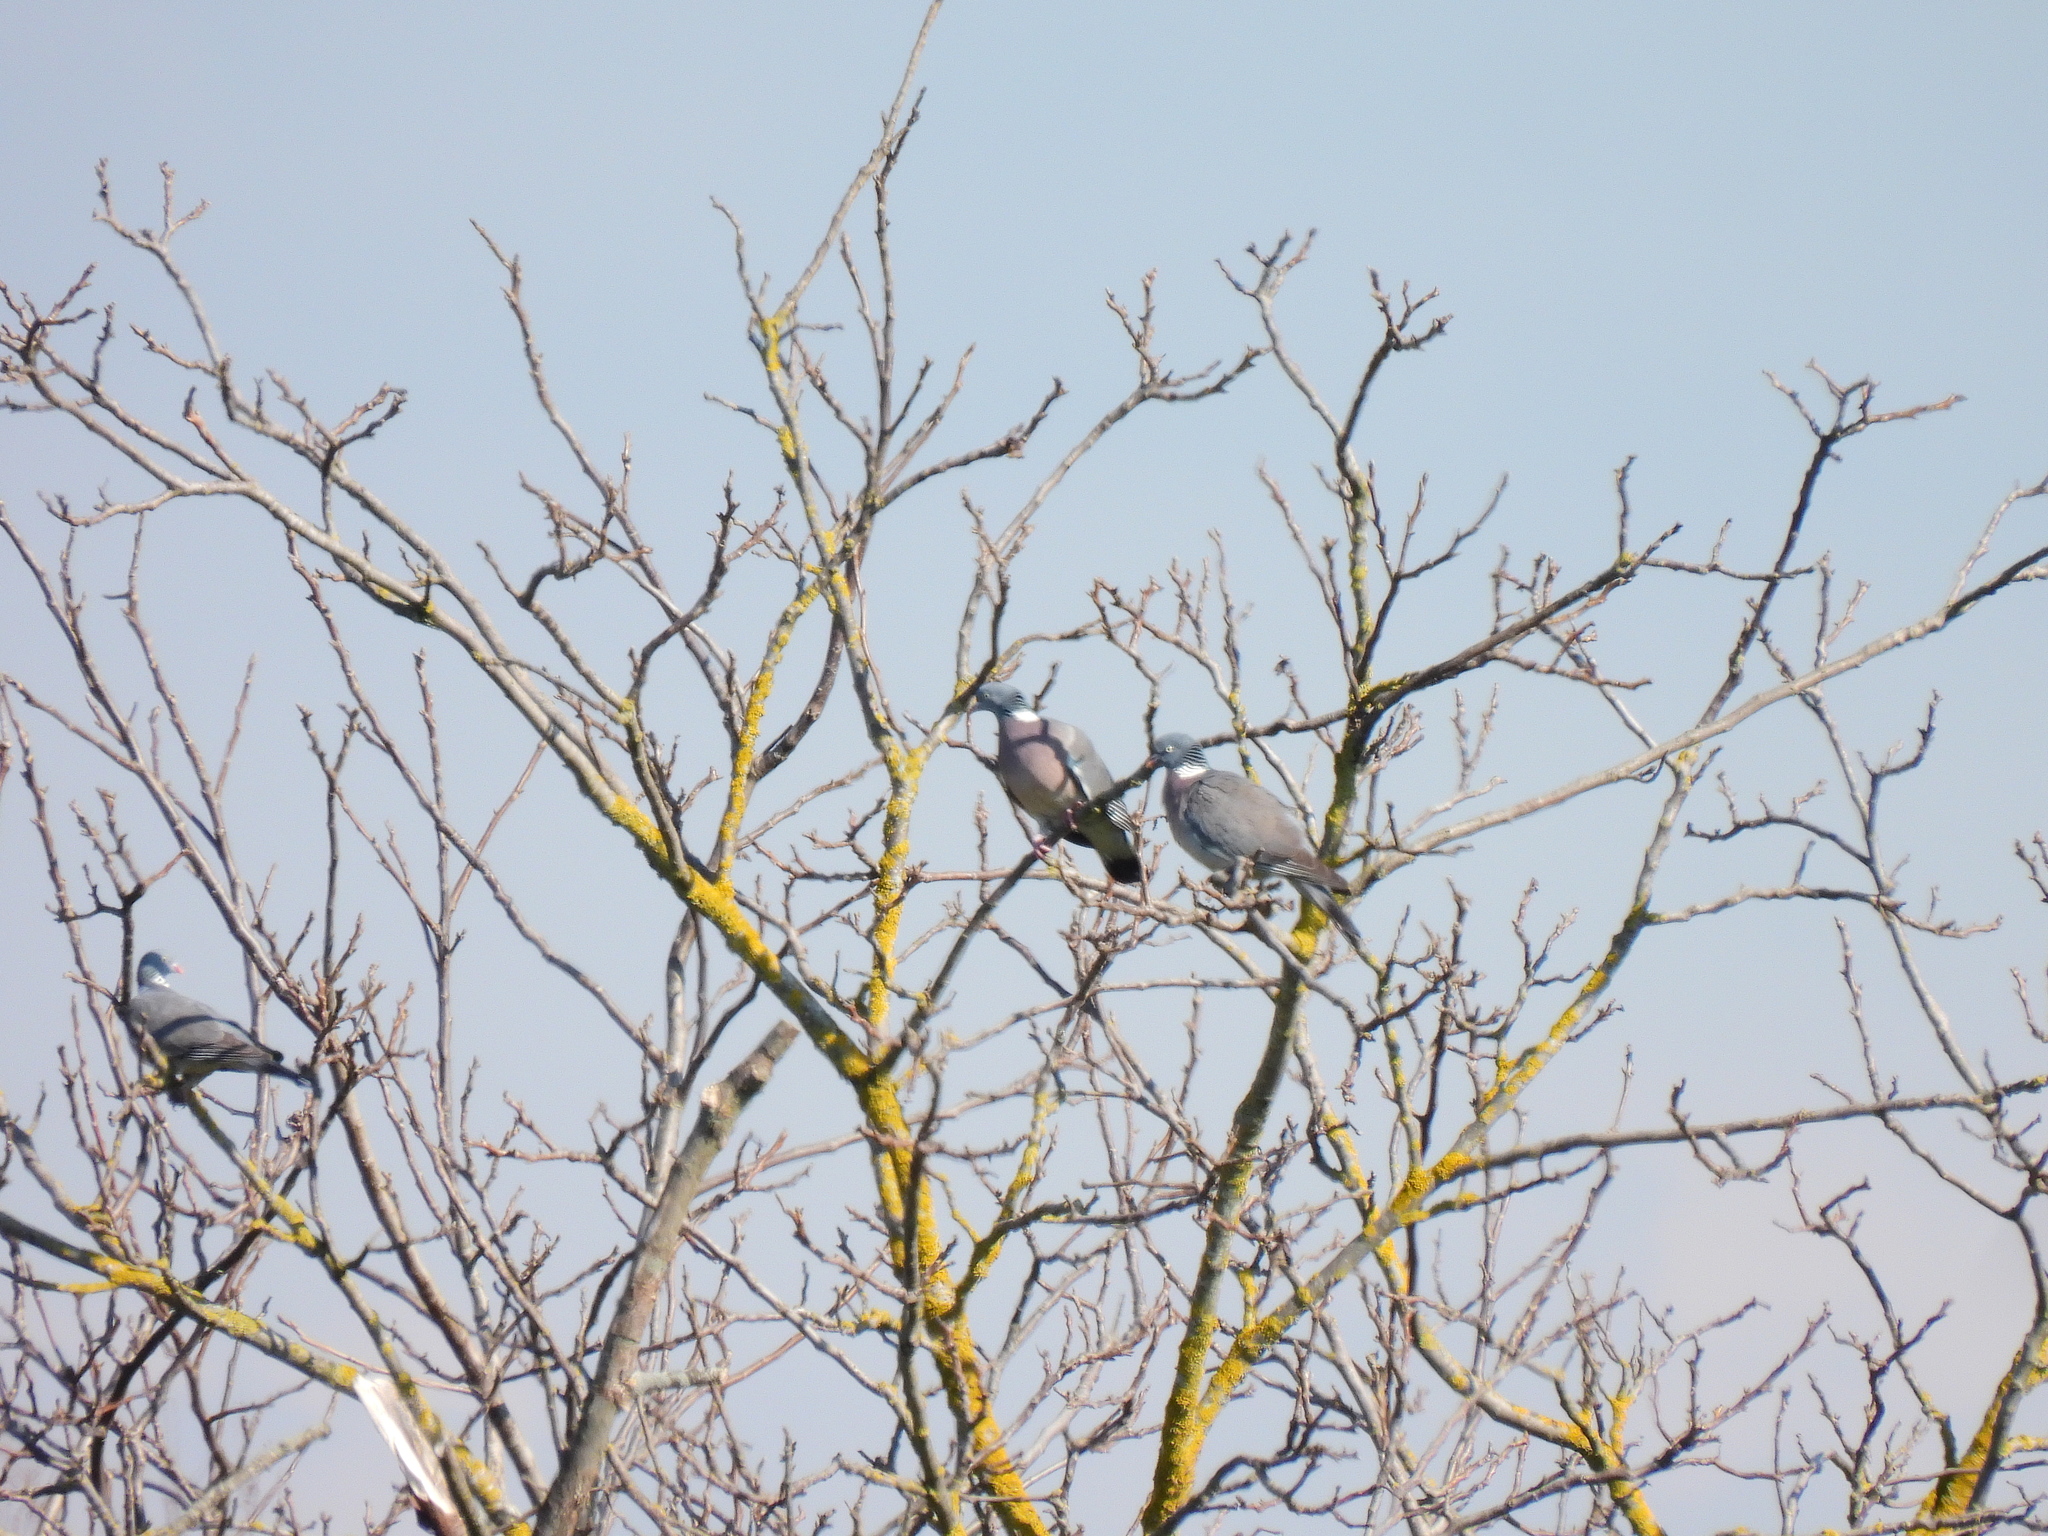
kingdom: Animalia
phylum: Chordata
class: Aves
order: Columbiformes
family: Columbidae
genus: Columba
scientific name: Columba palumbus
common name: Common wood pigeon
